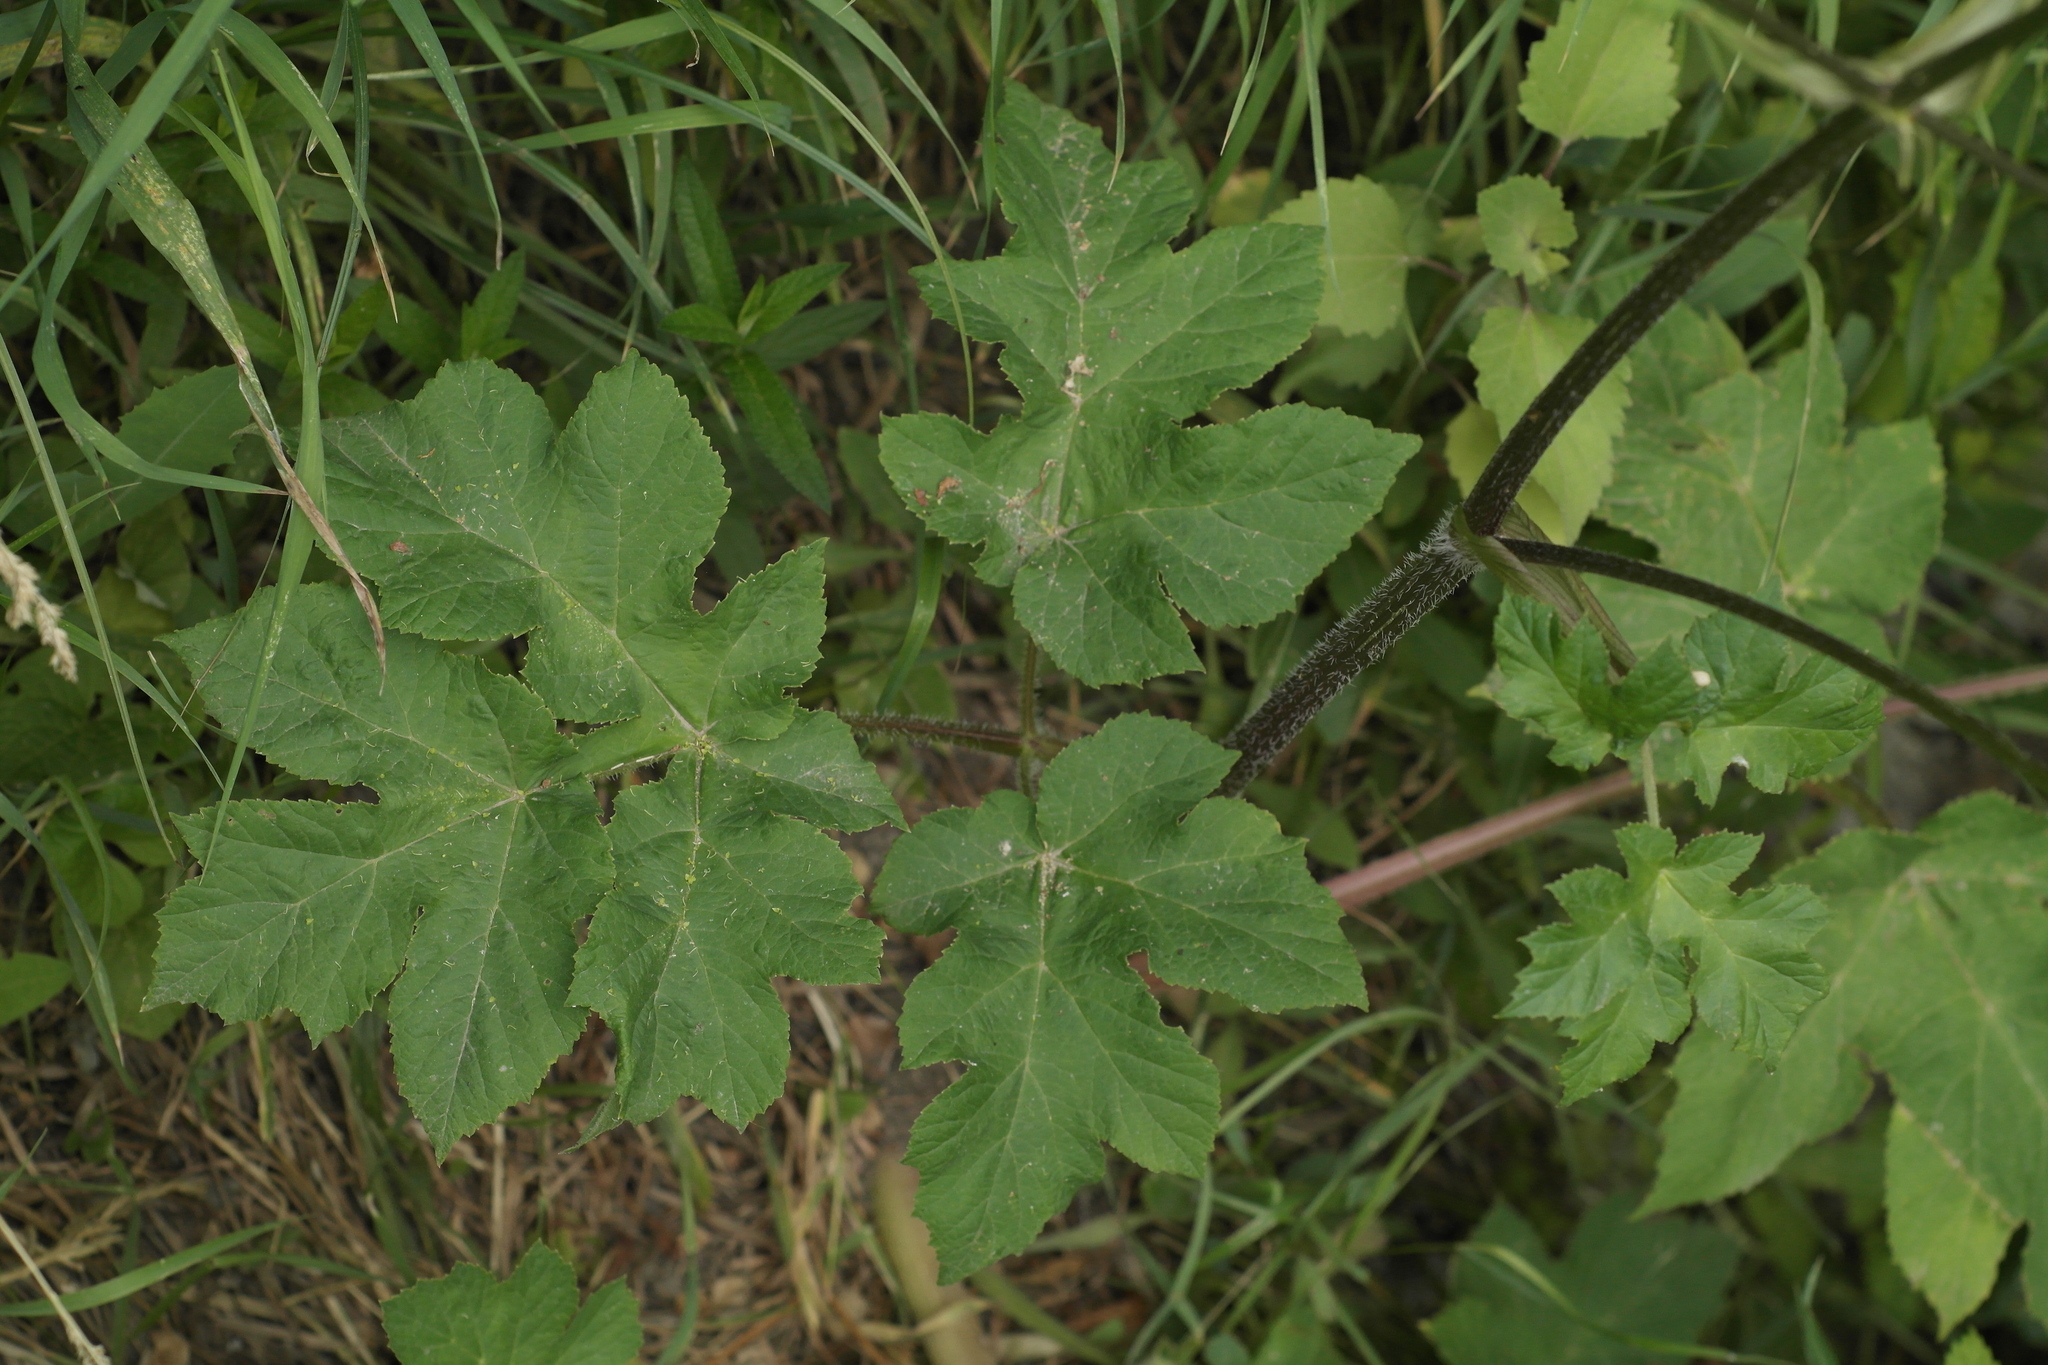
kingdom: Plantae
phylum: Tracheophyta
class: Magnoliopsida
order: Apiales
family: Apiaceae
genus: Heracleum
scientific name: Heracleum sphondylium
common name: Hogweed
